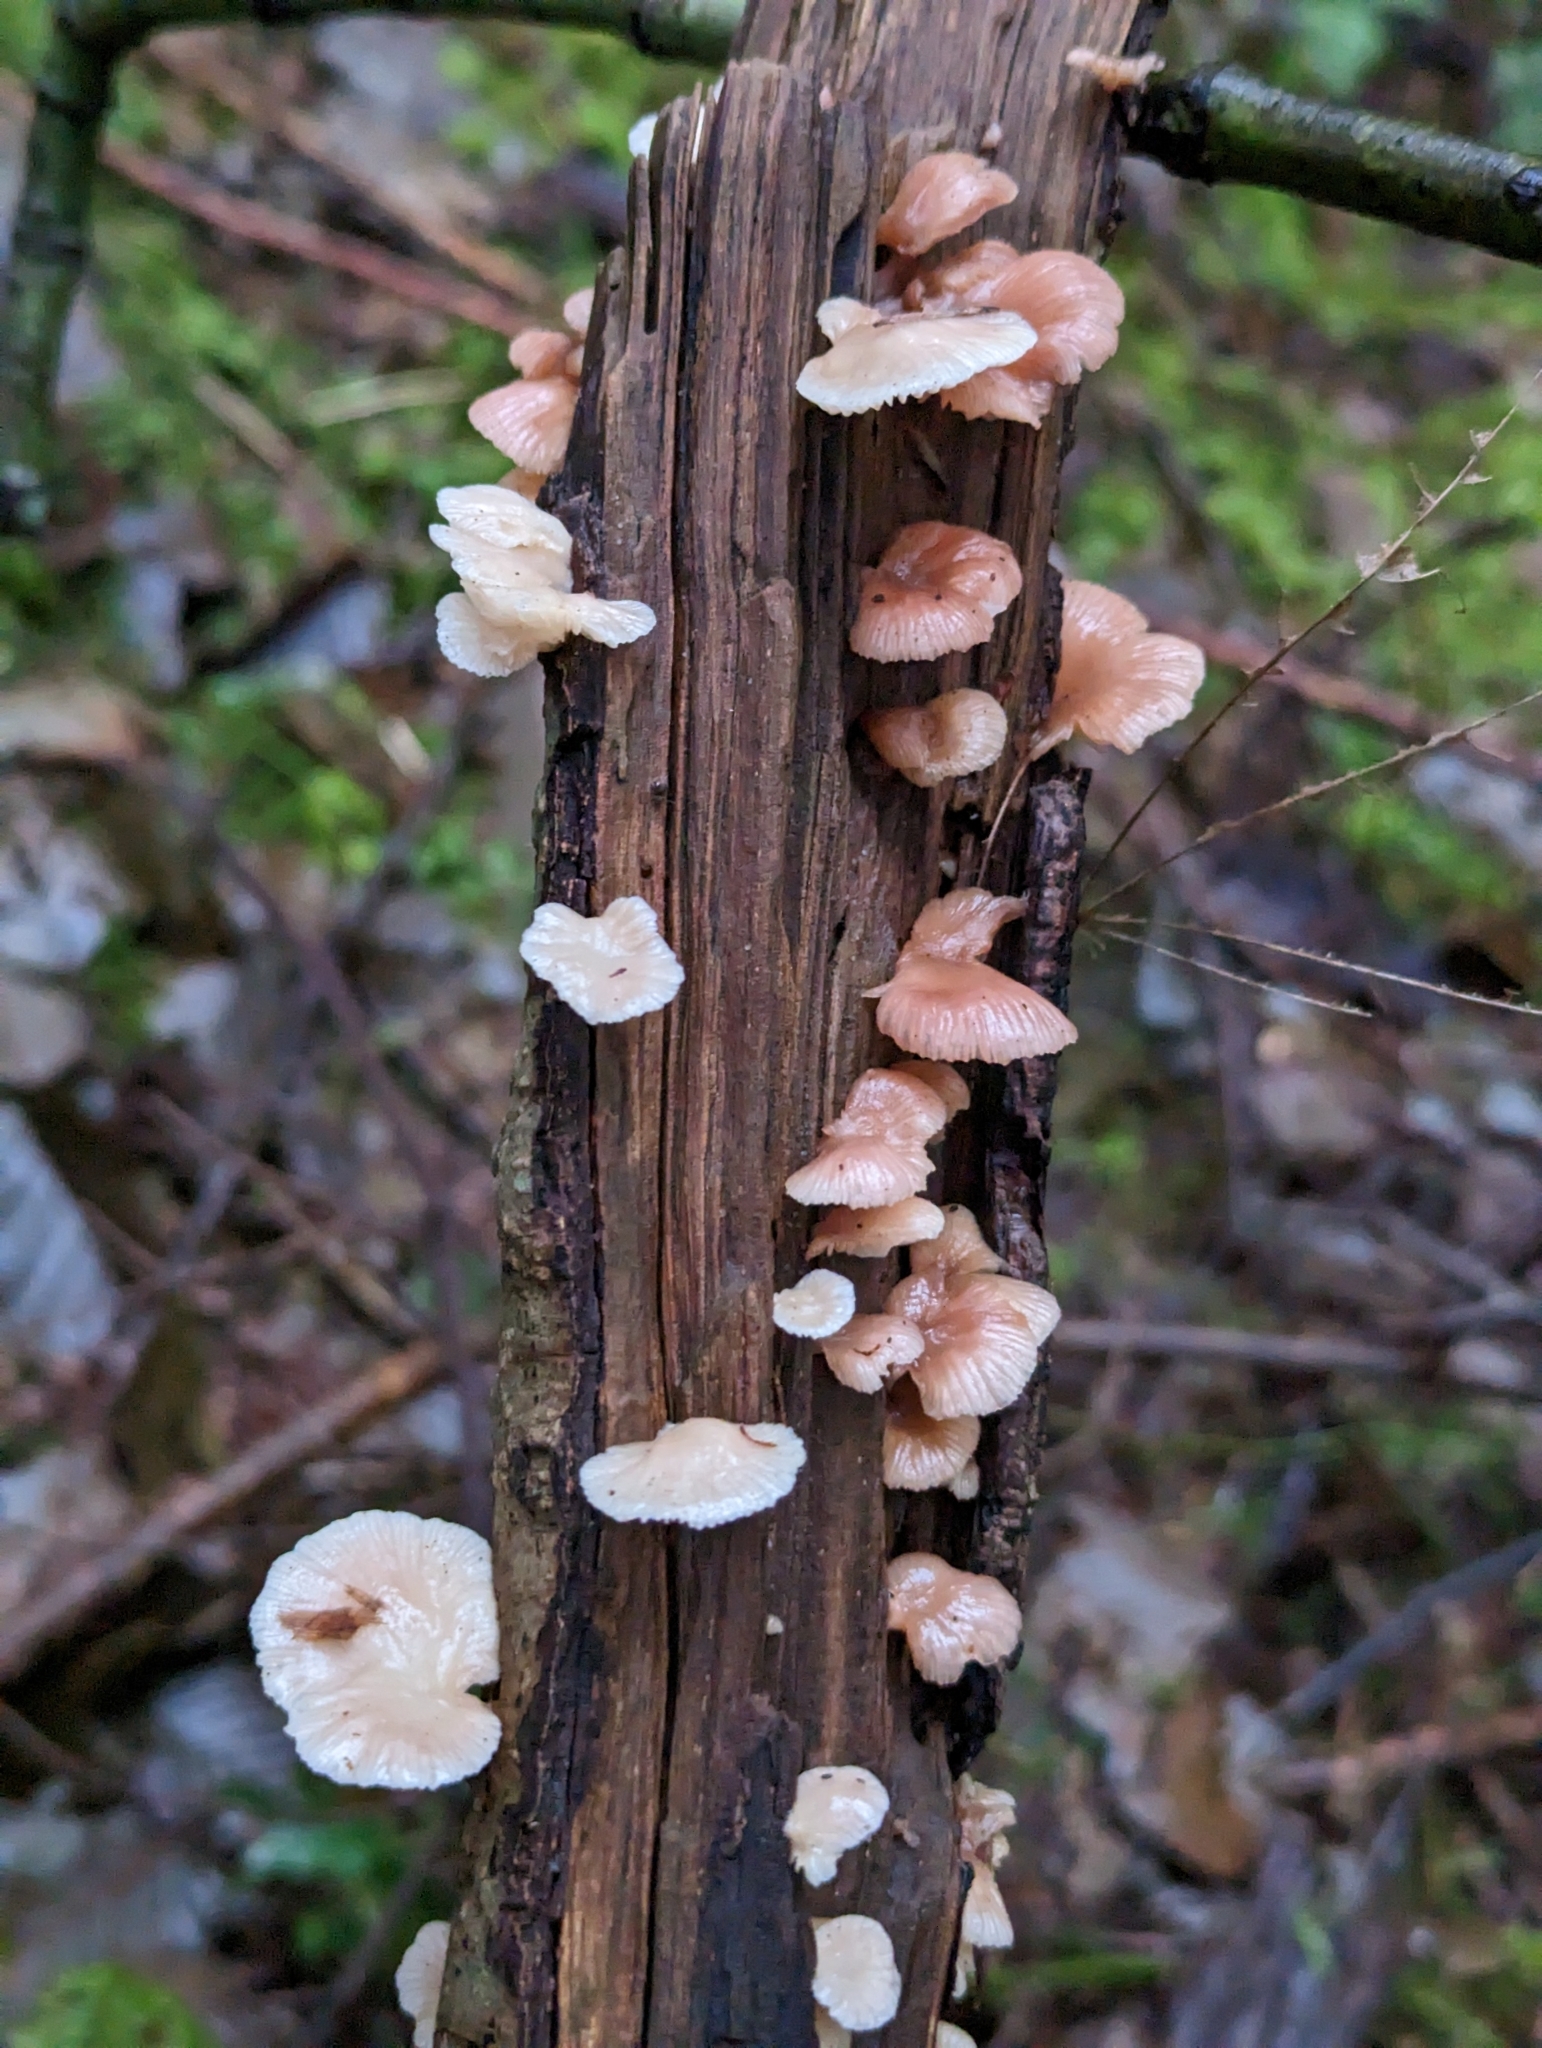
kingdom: Fungi
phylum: Basidiomycota
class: Agaricomycetes
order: Agaricales
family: Mycenaceae
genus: Panellus
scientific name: Panellus longinquus
